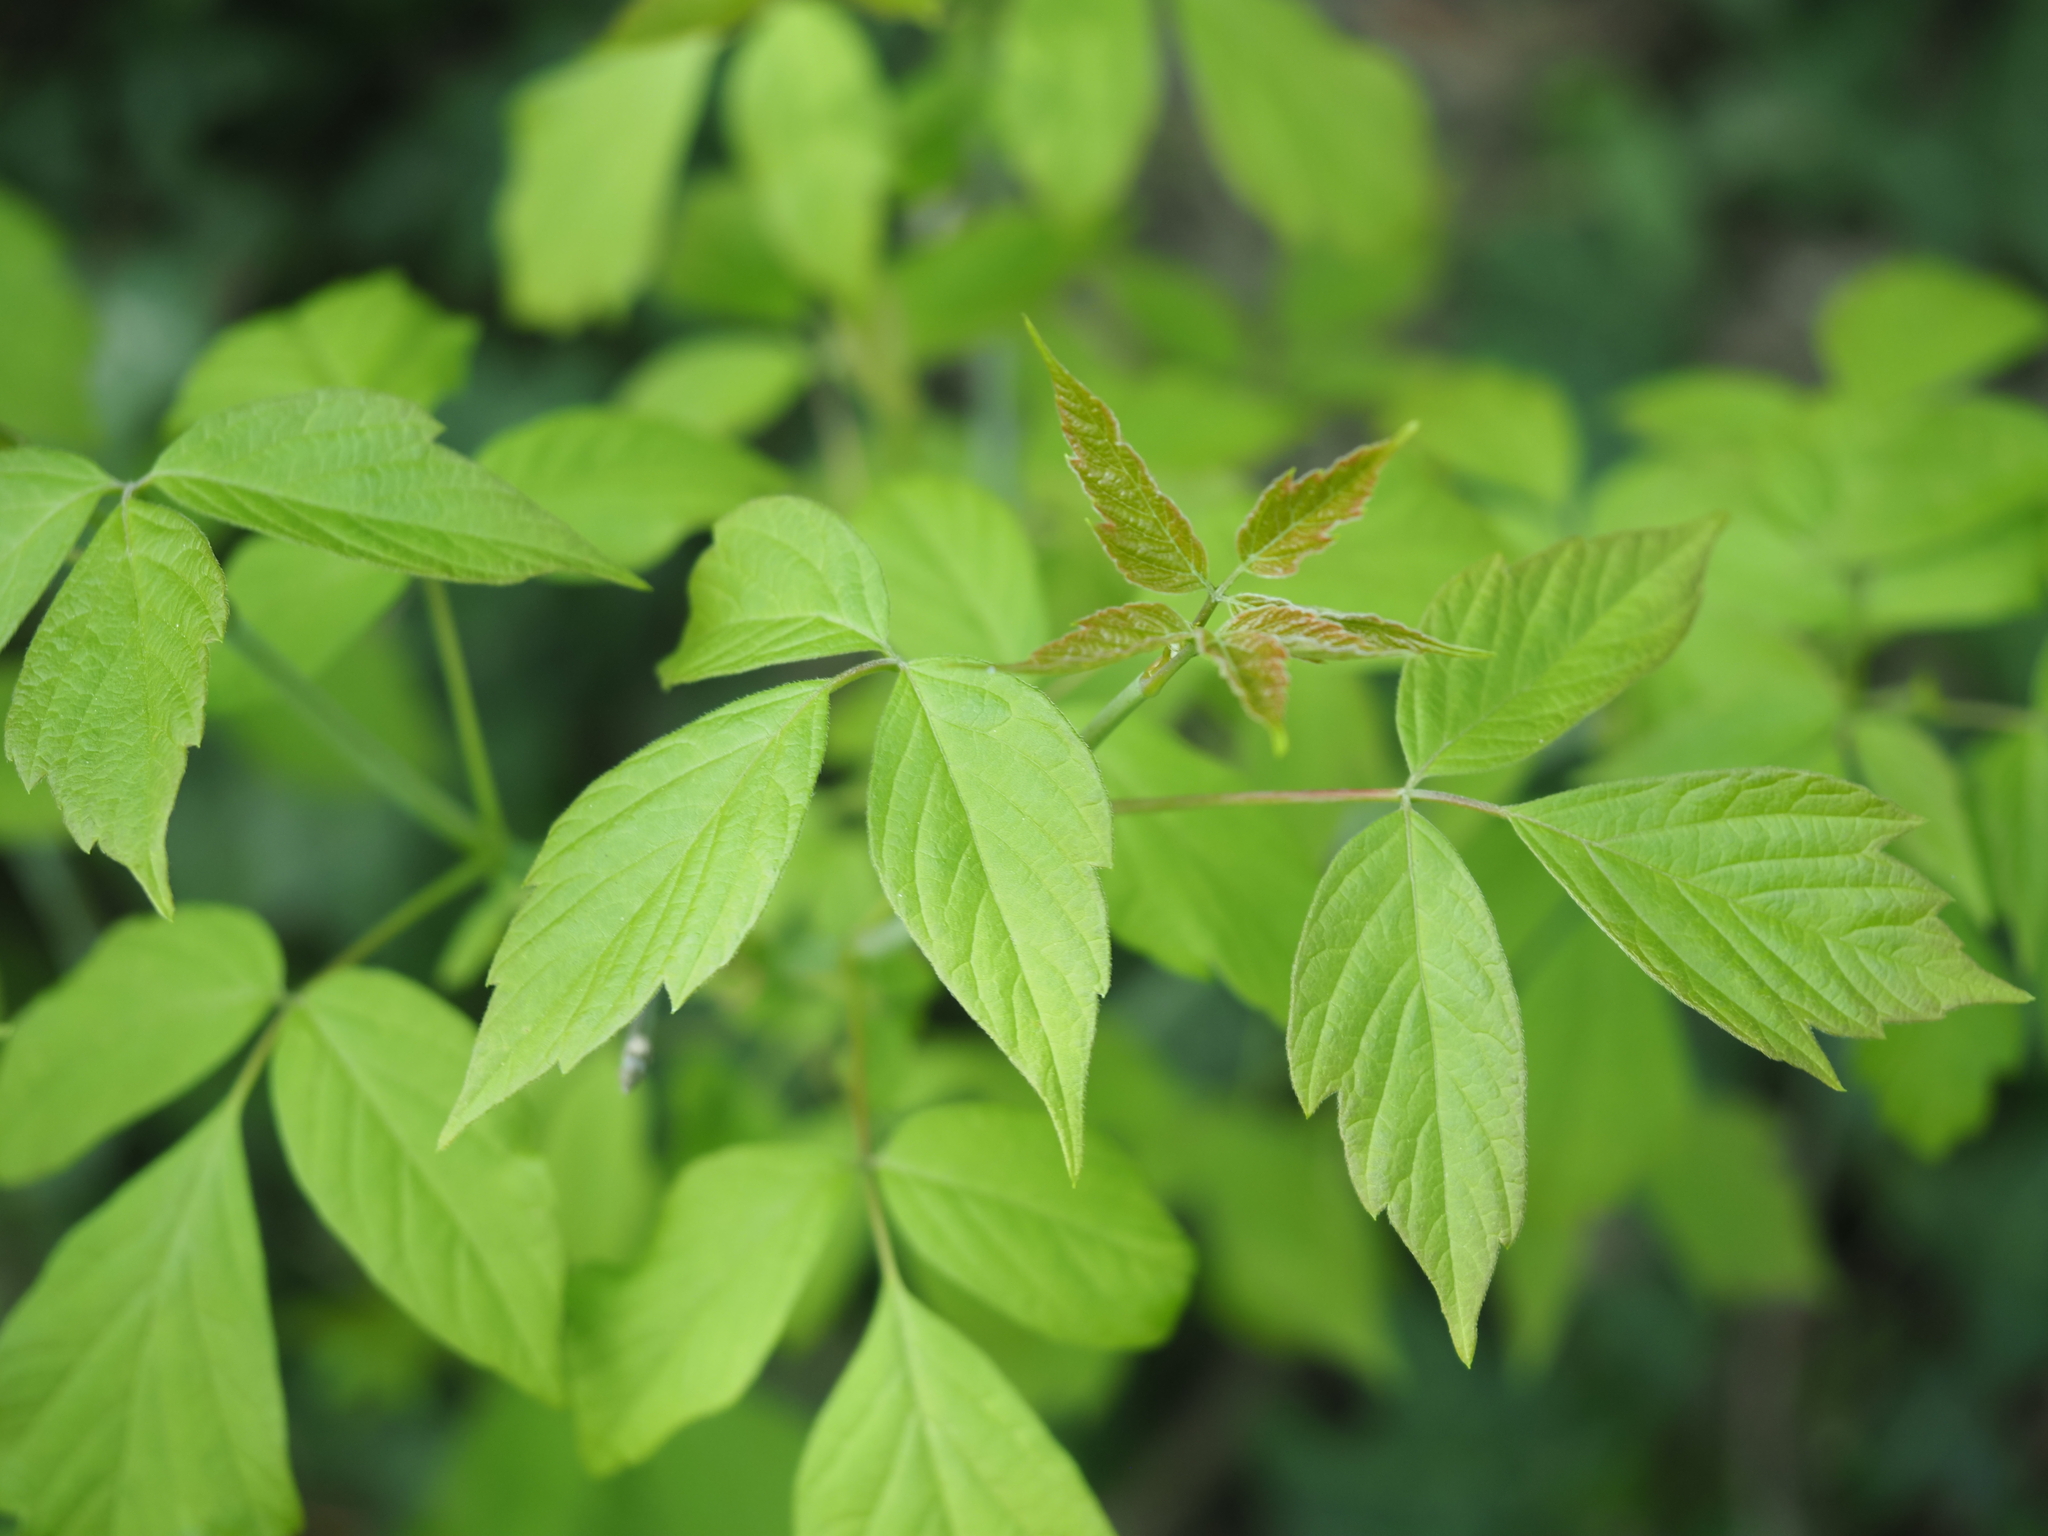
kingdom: Plantae
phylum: Tracheophyta
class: Magnoliopsida
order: Sapindales
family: Sapindaceae
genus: Acer
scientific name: Acer negundo
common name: Ashleaf maple
